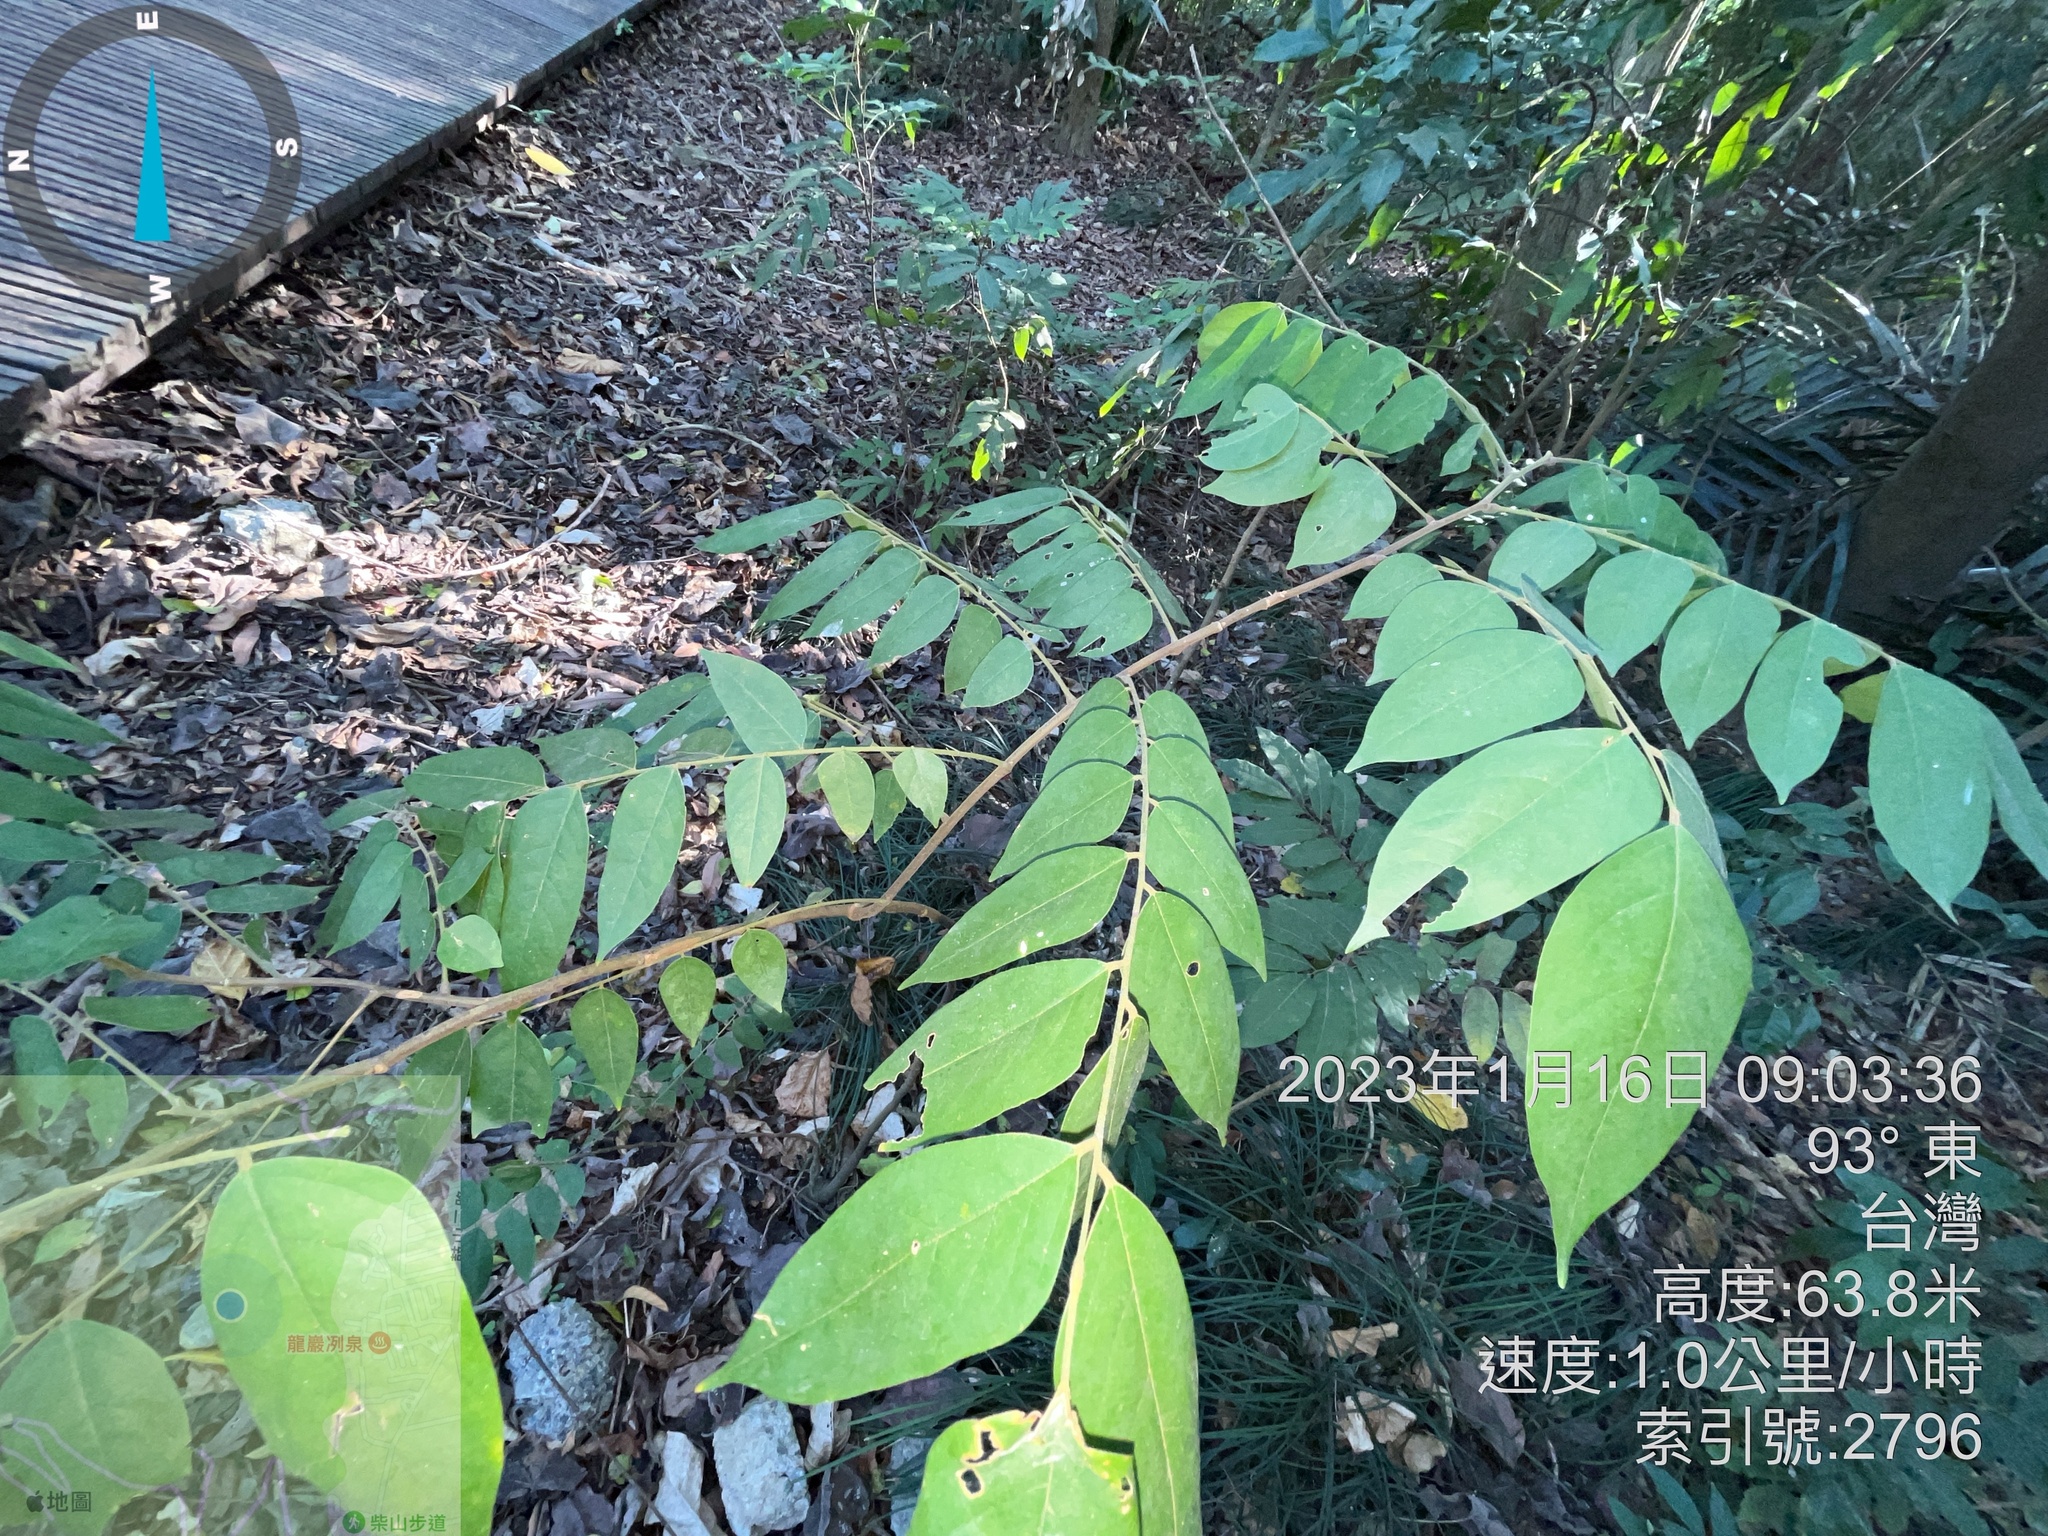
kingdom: Plantae
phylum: Tracheophyta
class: Magnoliopsida
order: Oxalidales
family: Oxalidaceae
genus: Averrhoa
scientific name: Averrhoa carambola
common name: Blimbing
